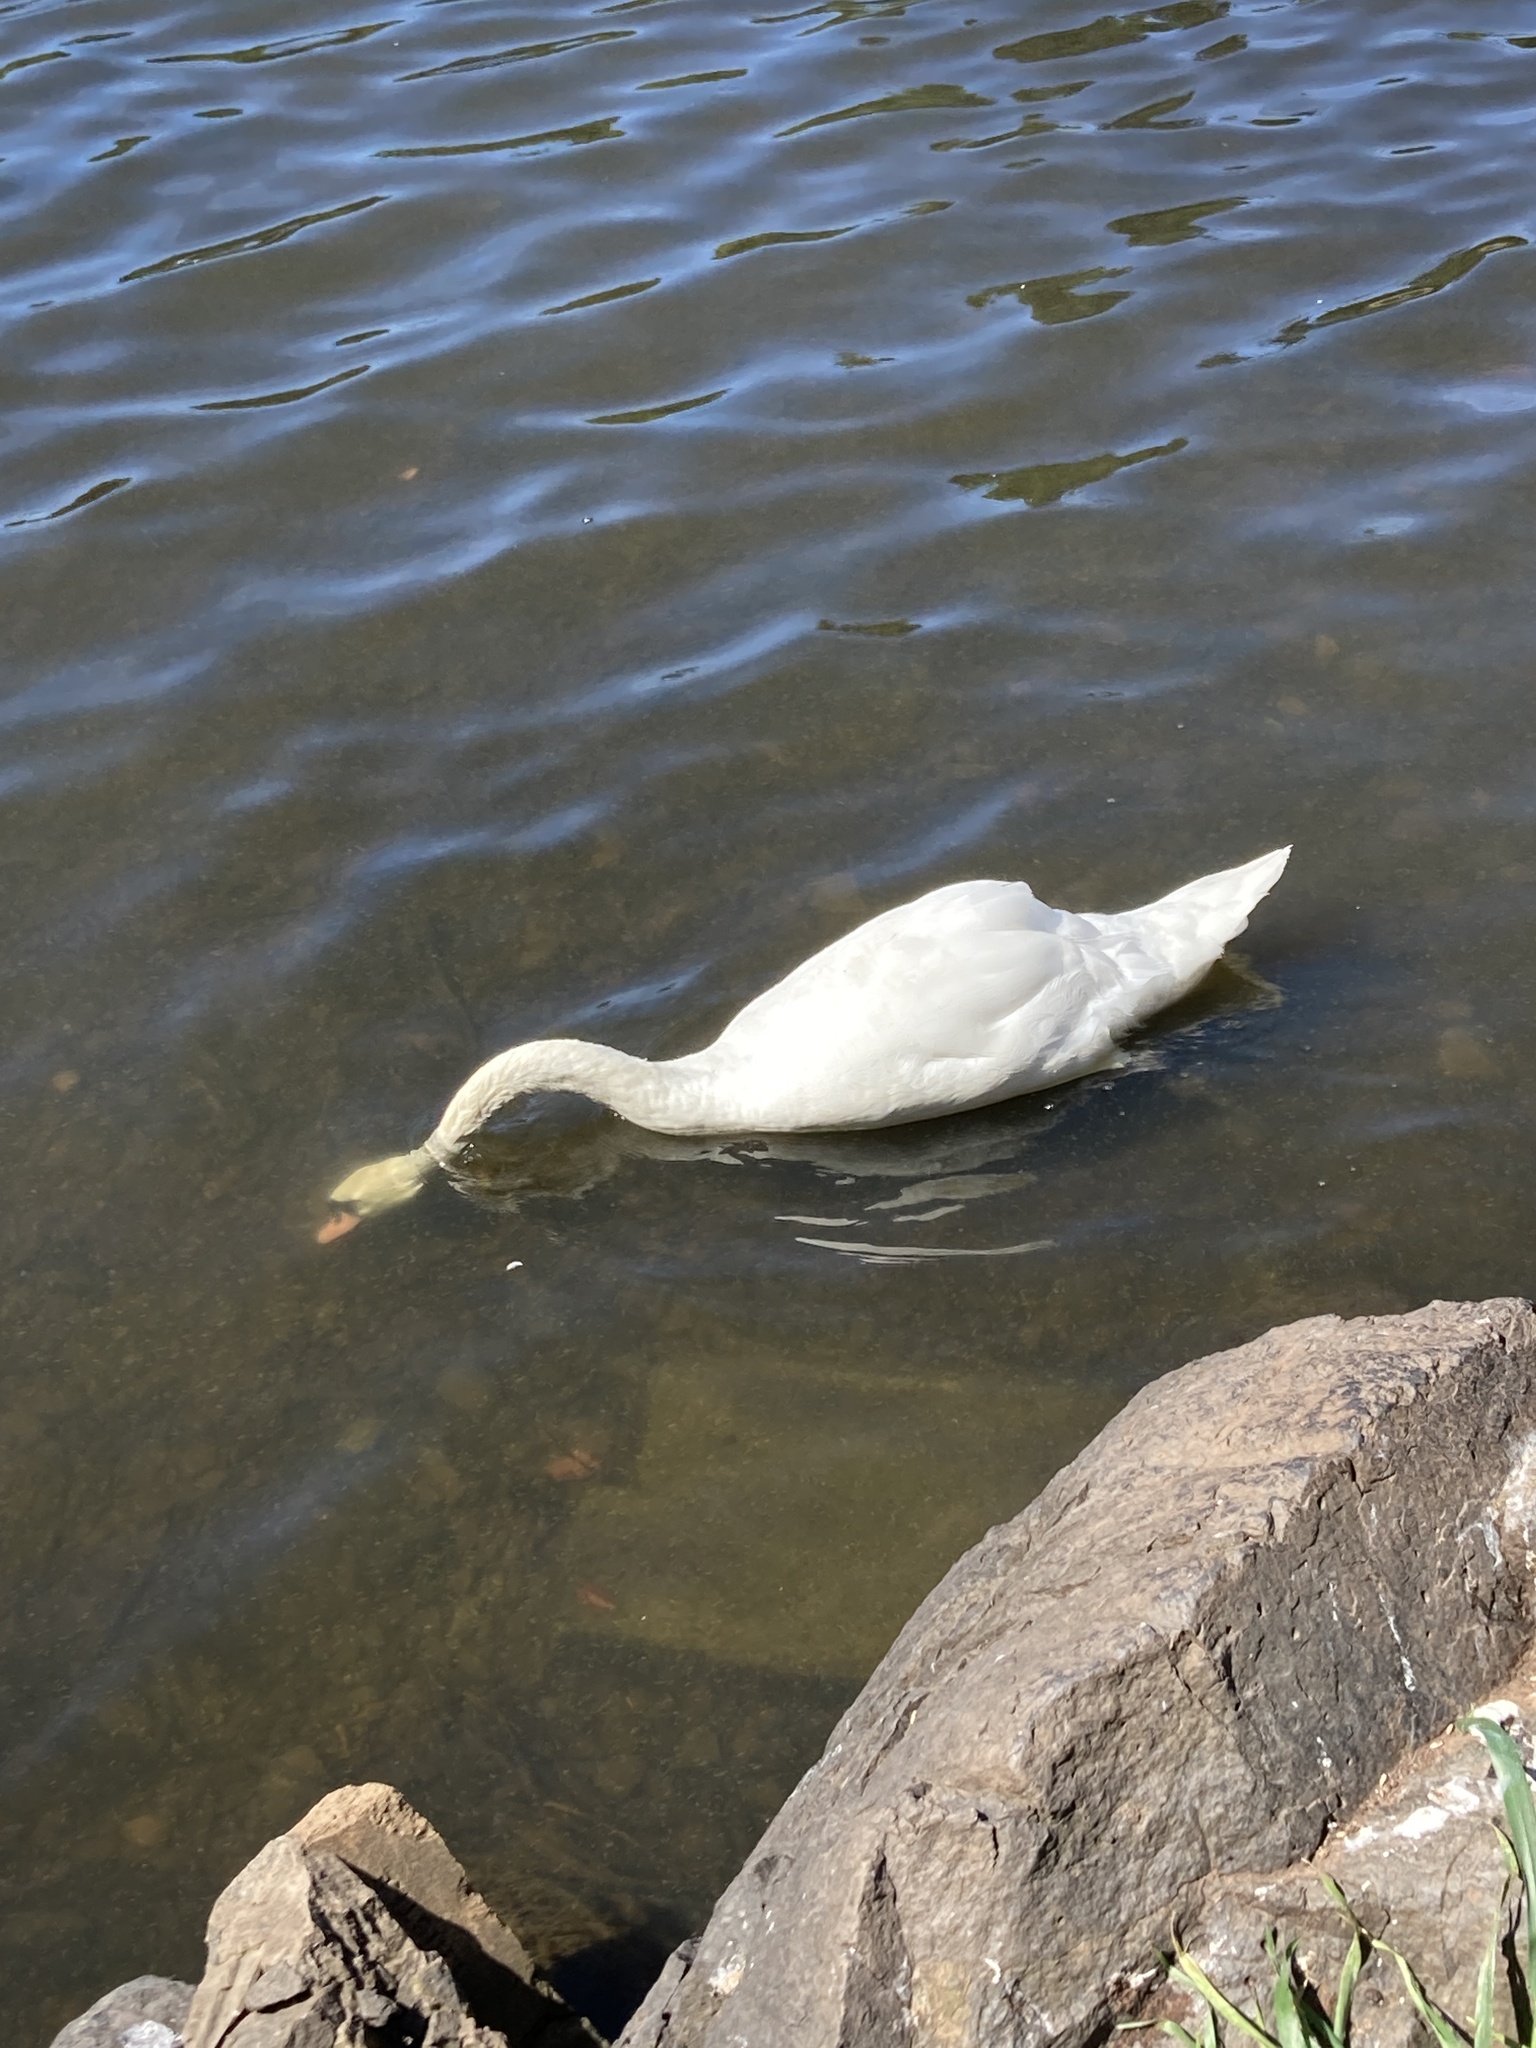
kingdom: Animalia
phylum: Chordata
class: Aves
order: Anseriformes
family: Anatidae
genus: Cygnus
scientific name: Cygnus olor
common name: Mute swan
